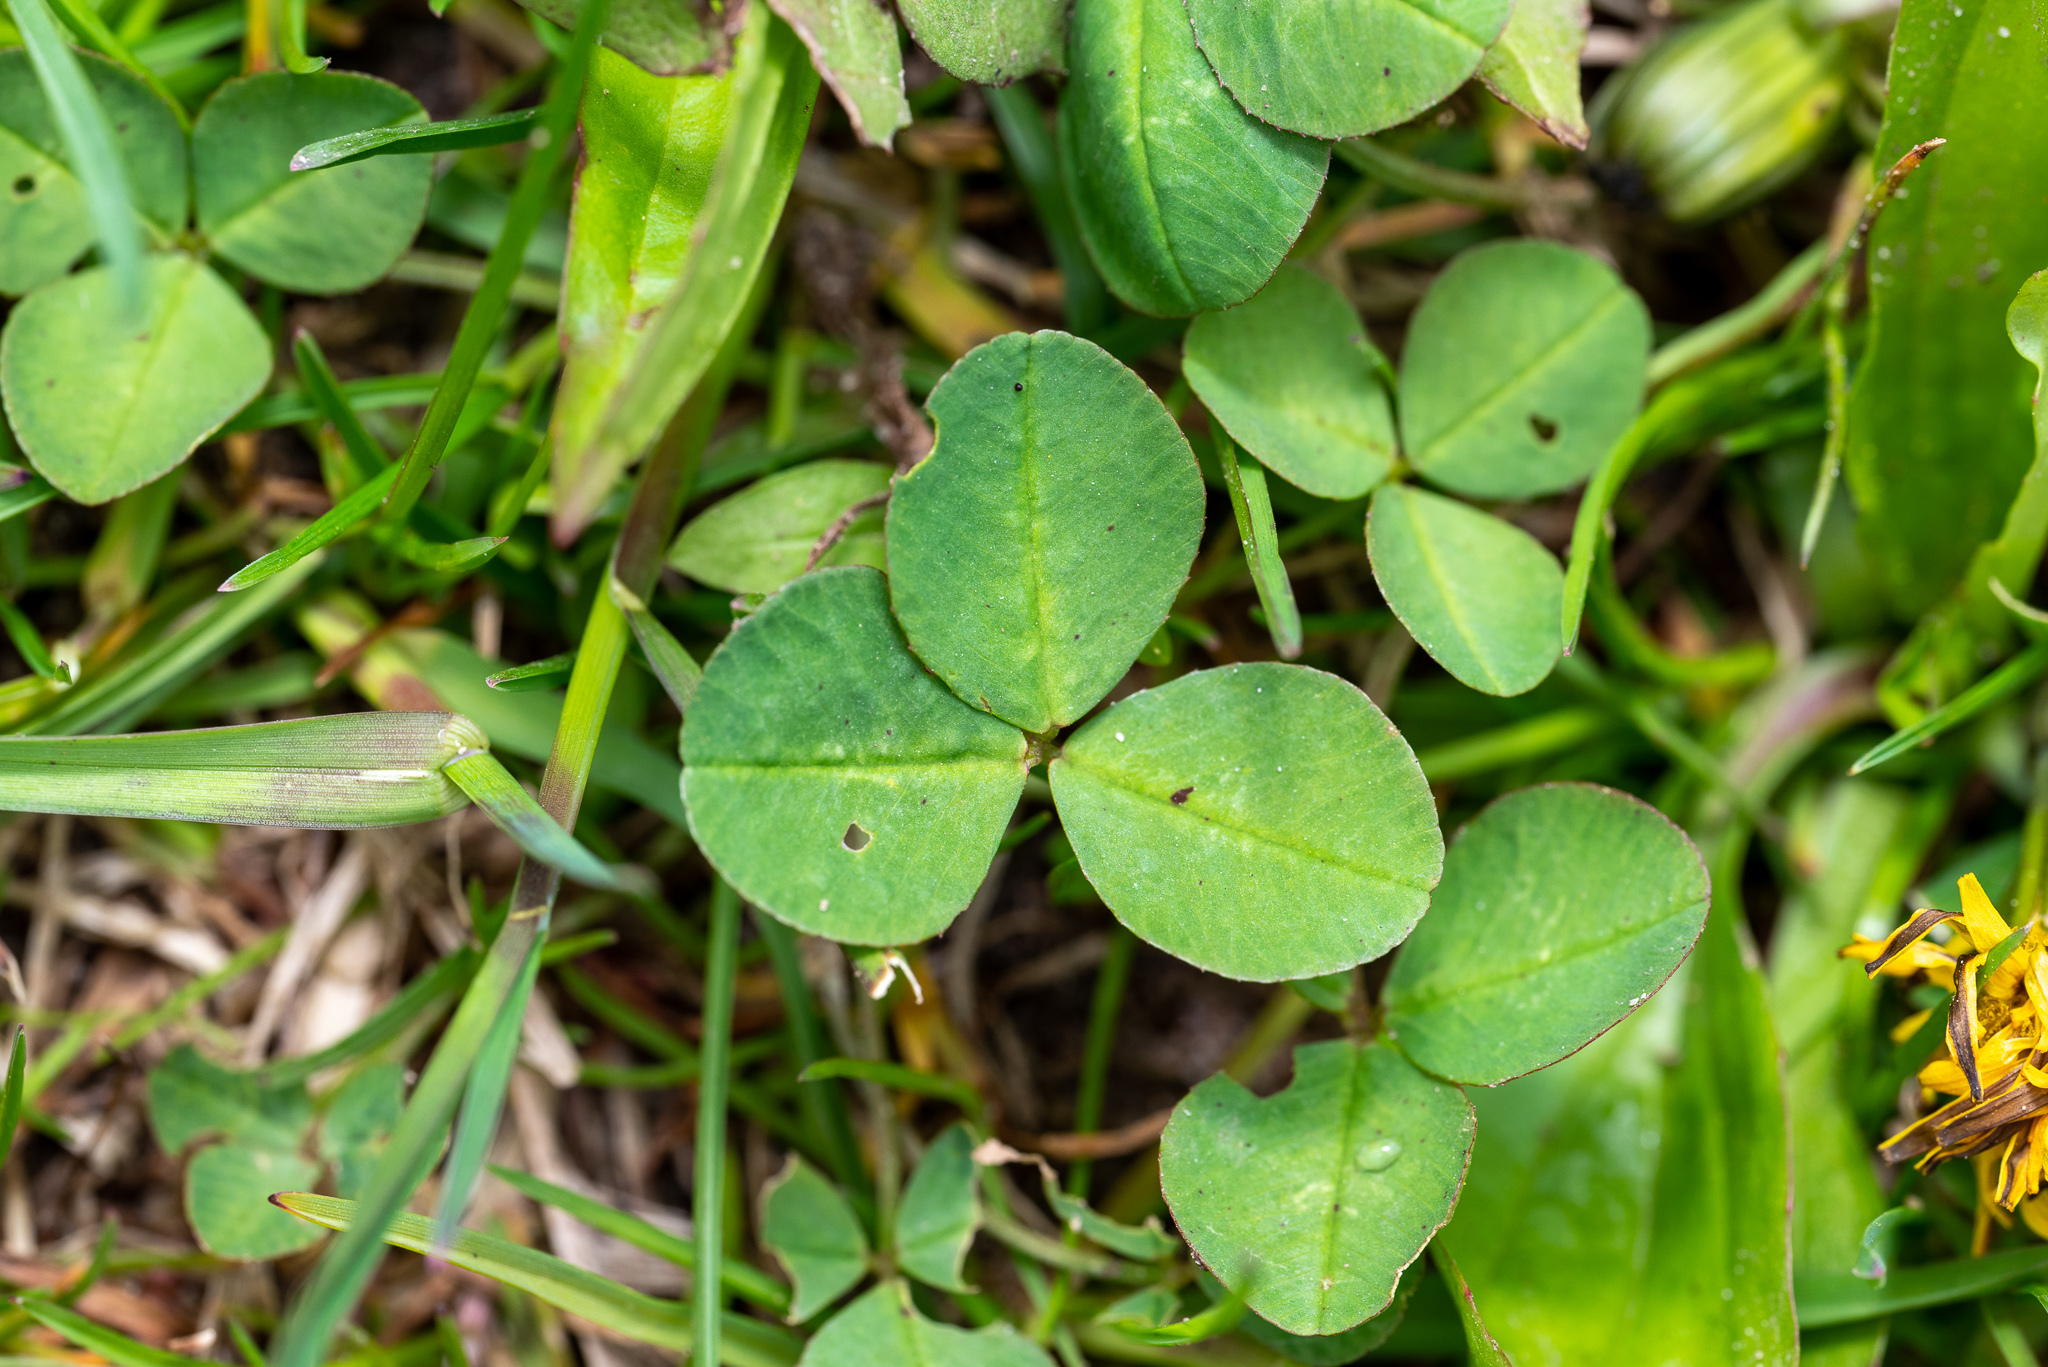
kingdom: Plantae
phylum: Tracheophyta
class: Magnoliopsida
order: Fabales
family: Fabaceae
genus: Trifolium
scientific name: Trifolium repens
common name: White clover
